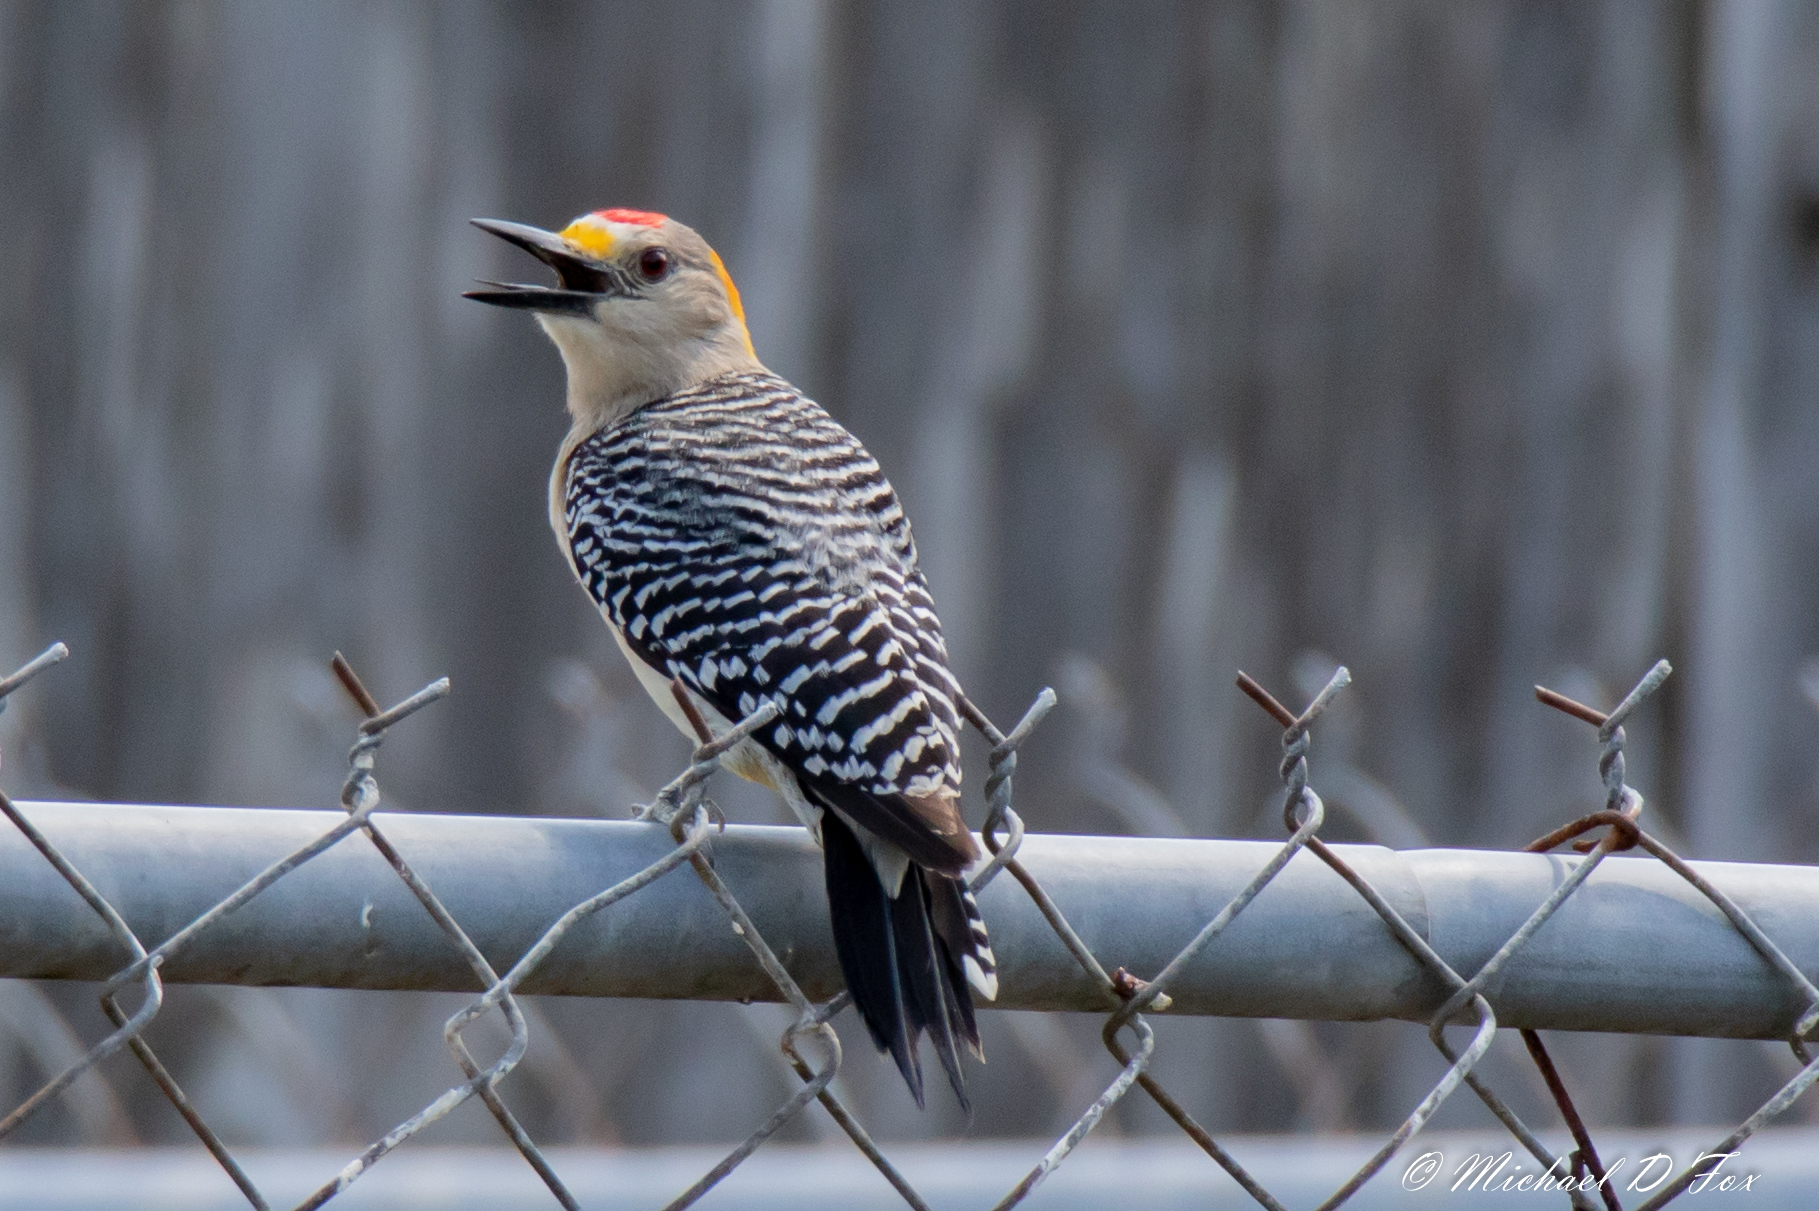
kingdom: Animalia
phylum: Chordata
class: Aves
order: Piciformes
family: Picidae
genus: Melanerpes
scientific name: Melanerpes aurifrons
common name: Golden-fronted woodpecker
